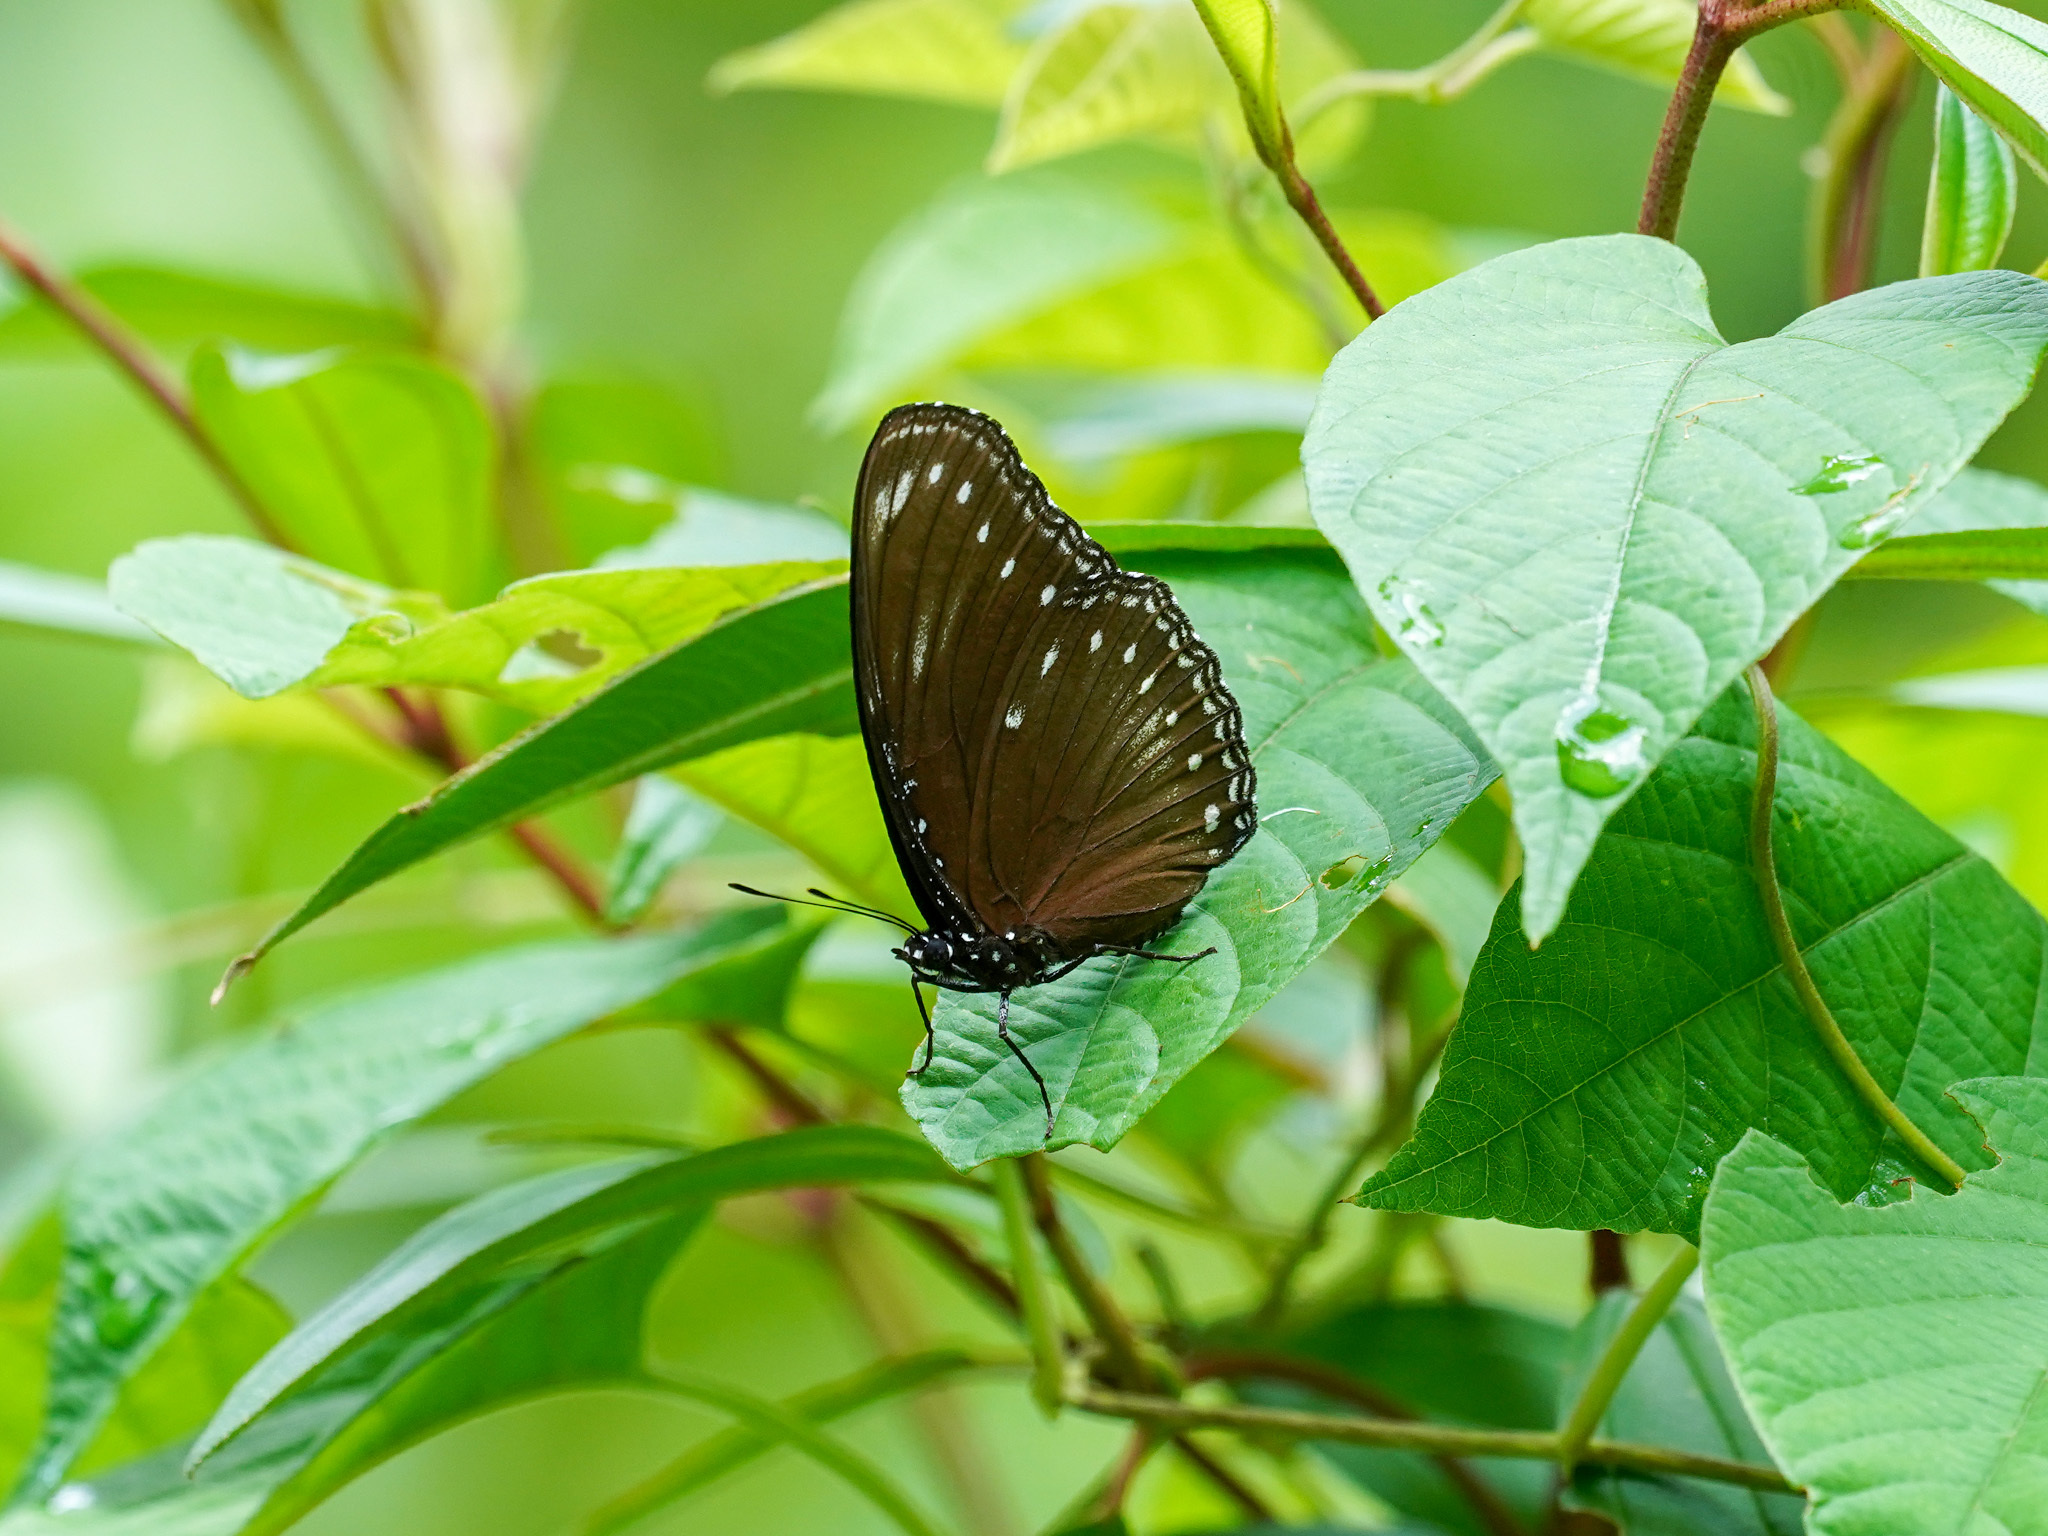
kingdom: Animalia
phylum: Arthropoda
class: Insecta
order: Lepidoptera
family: Nymphalidae
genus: Hypolimnas
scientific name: Hypolimnas anomala
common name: Malayan eggfly
